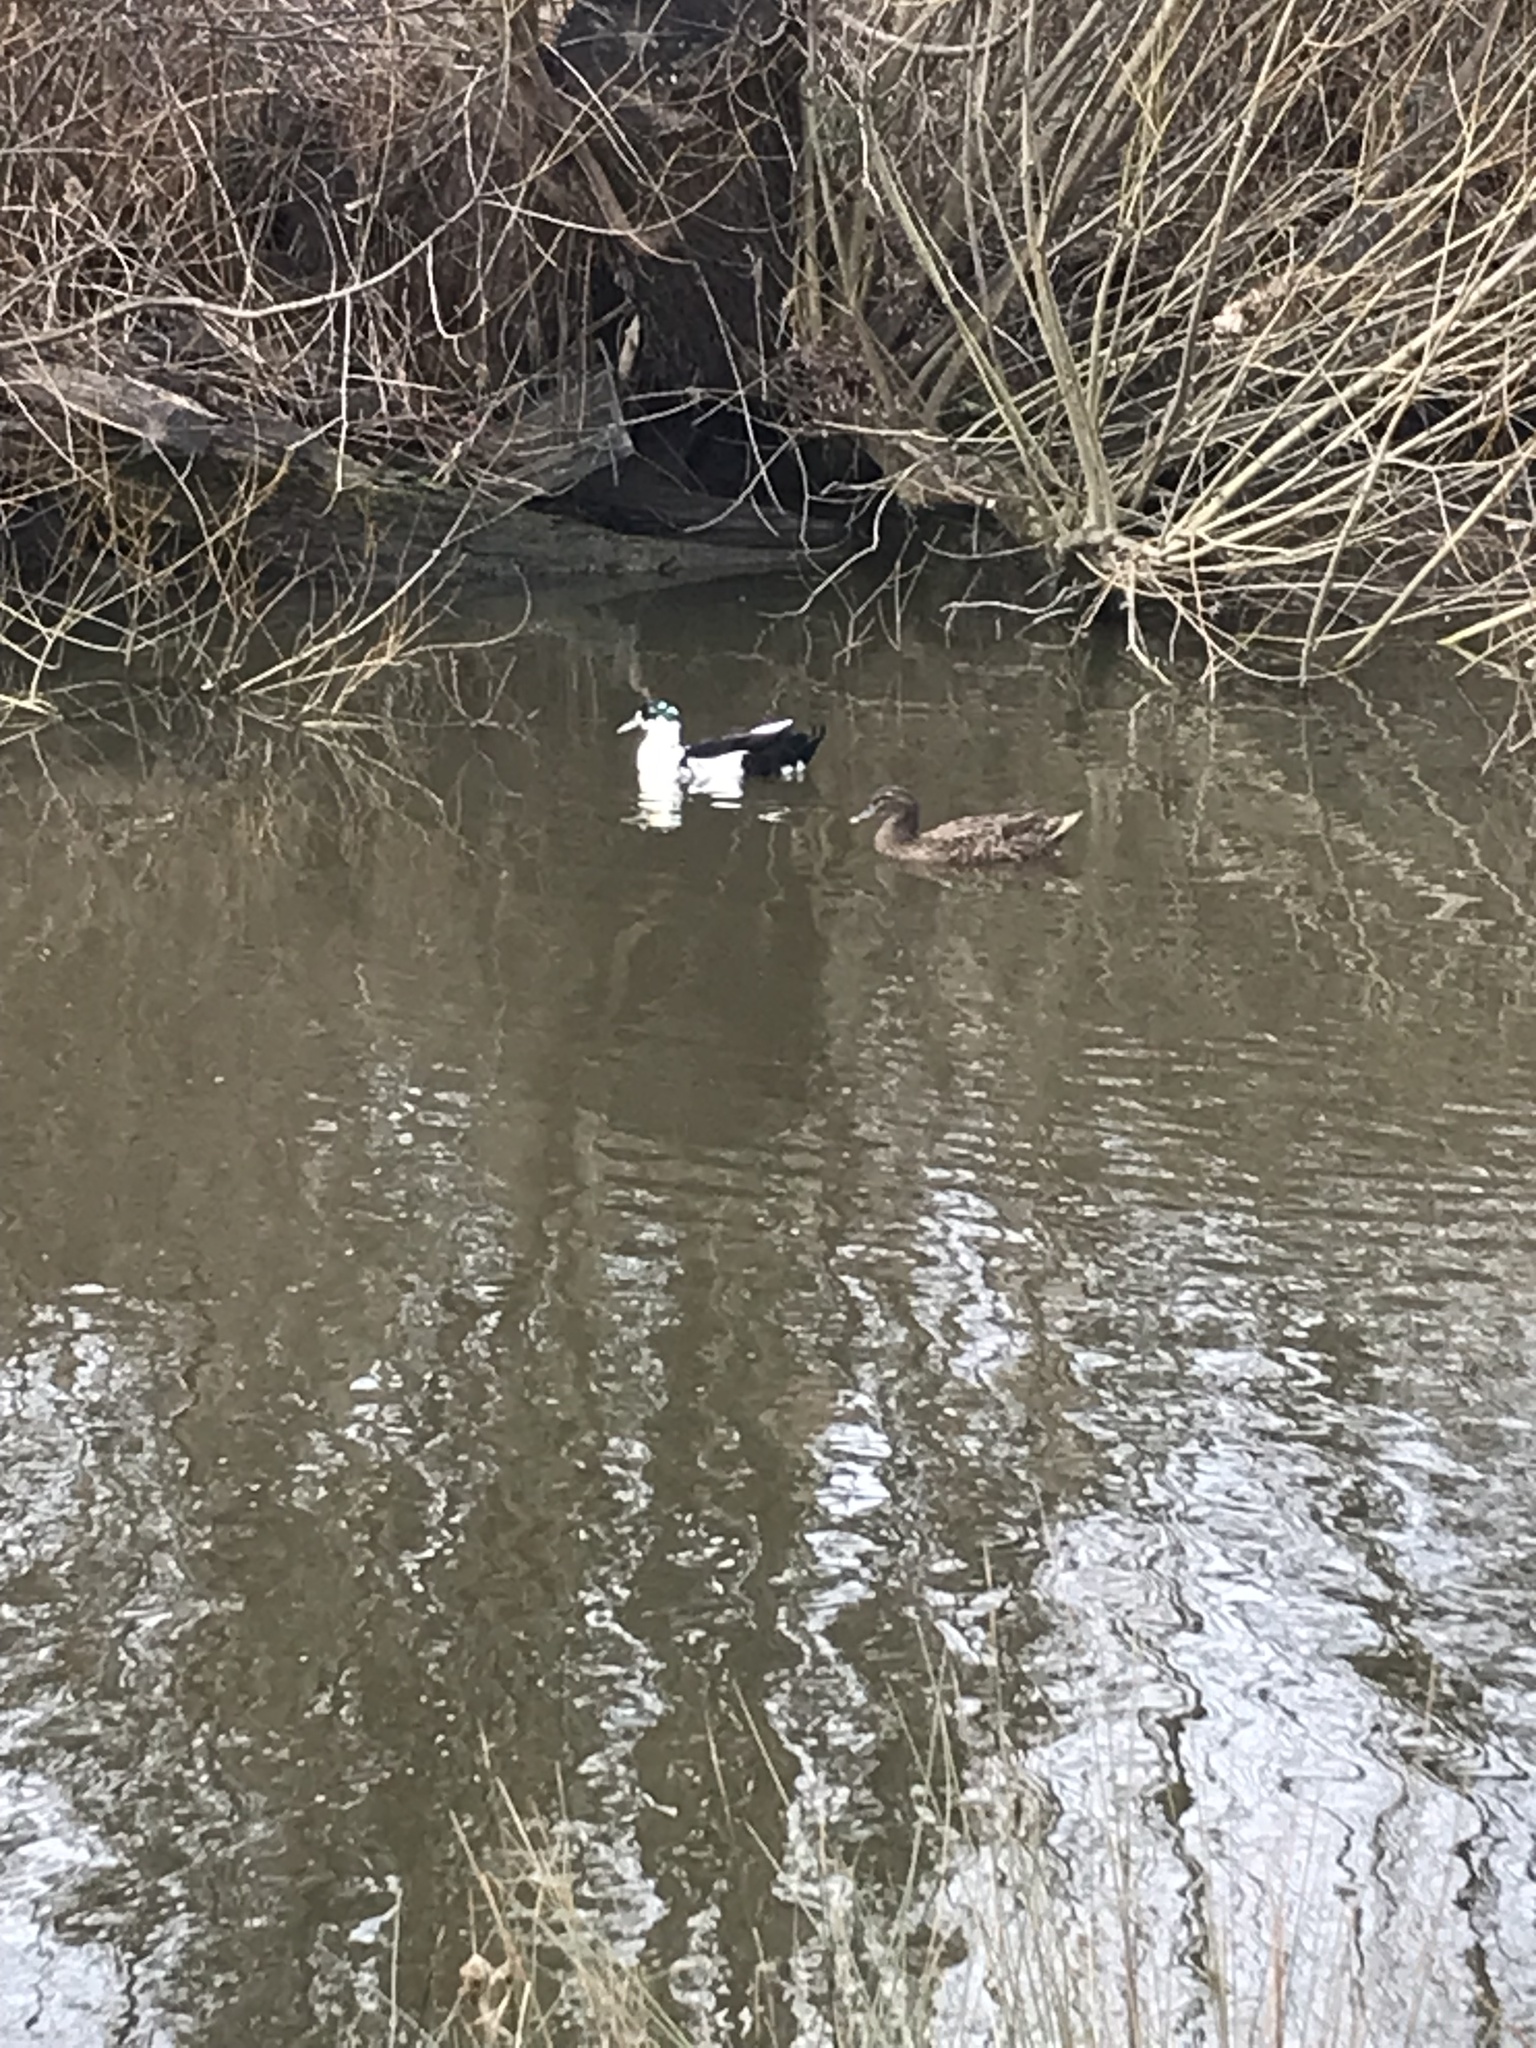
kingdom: Animalia
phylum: Chordata
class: Aves
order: Anseriformes
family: Anatidae
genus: Anas
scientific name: Anas platyrhynchos
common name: Mallard
